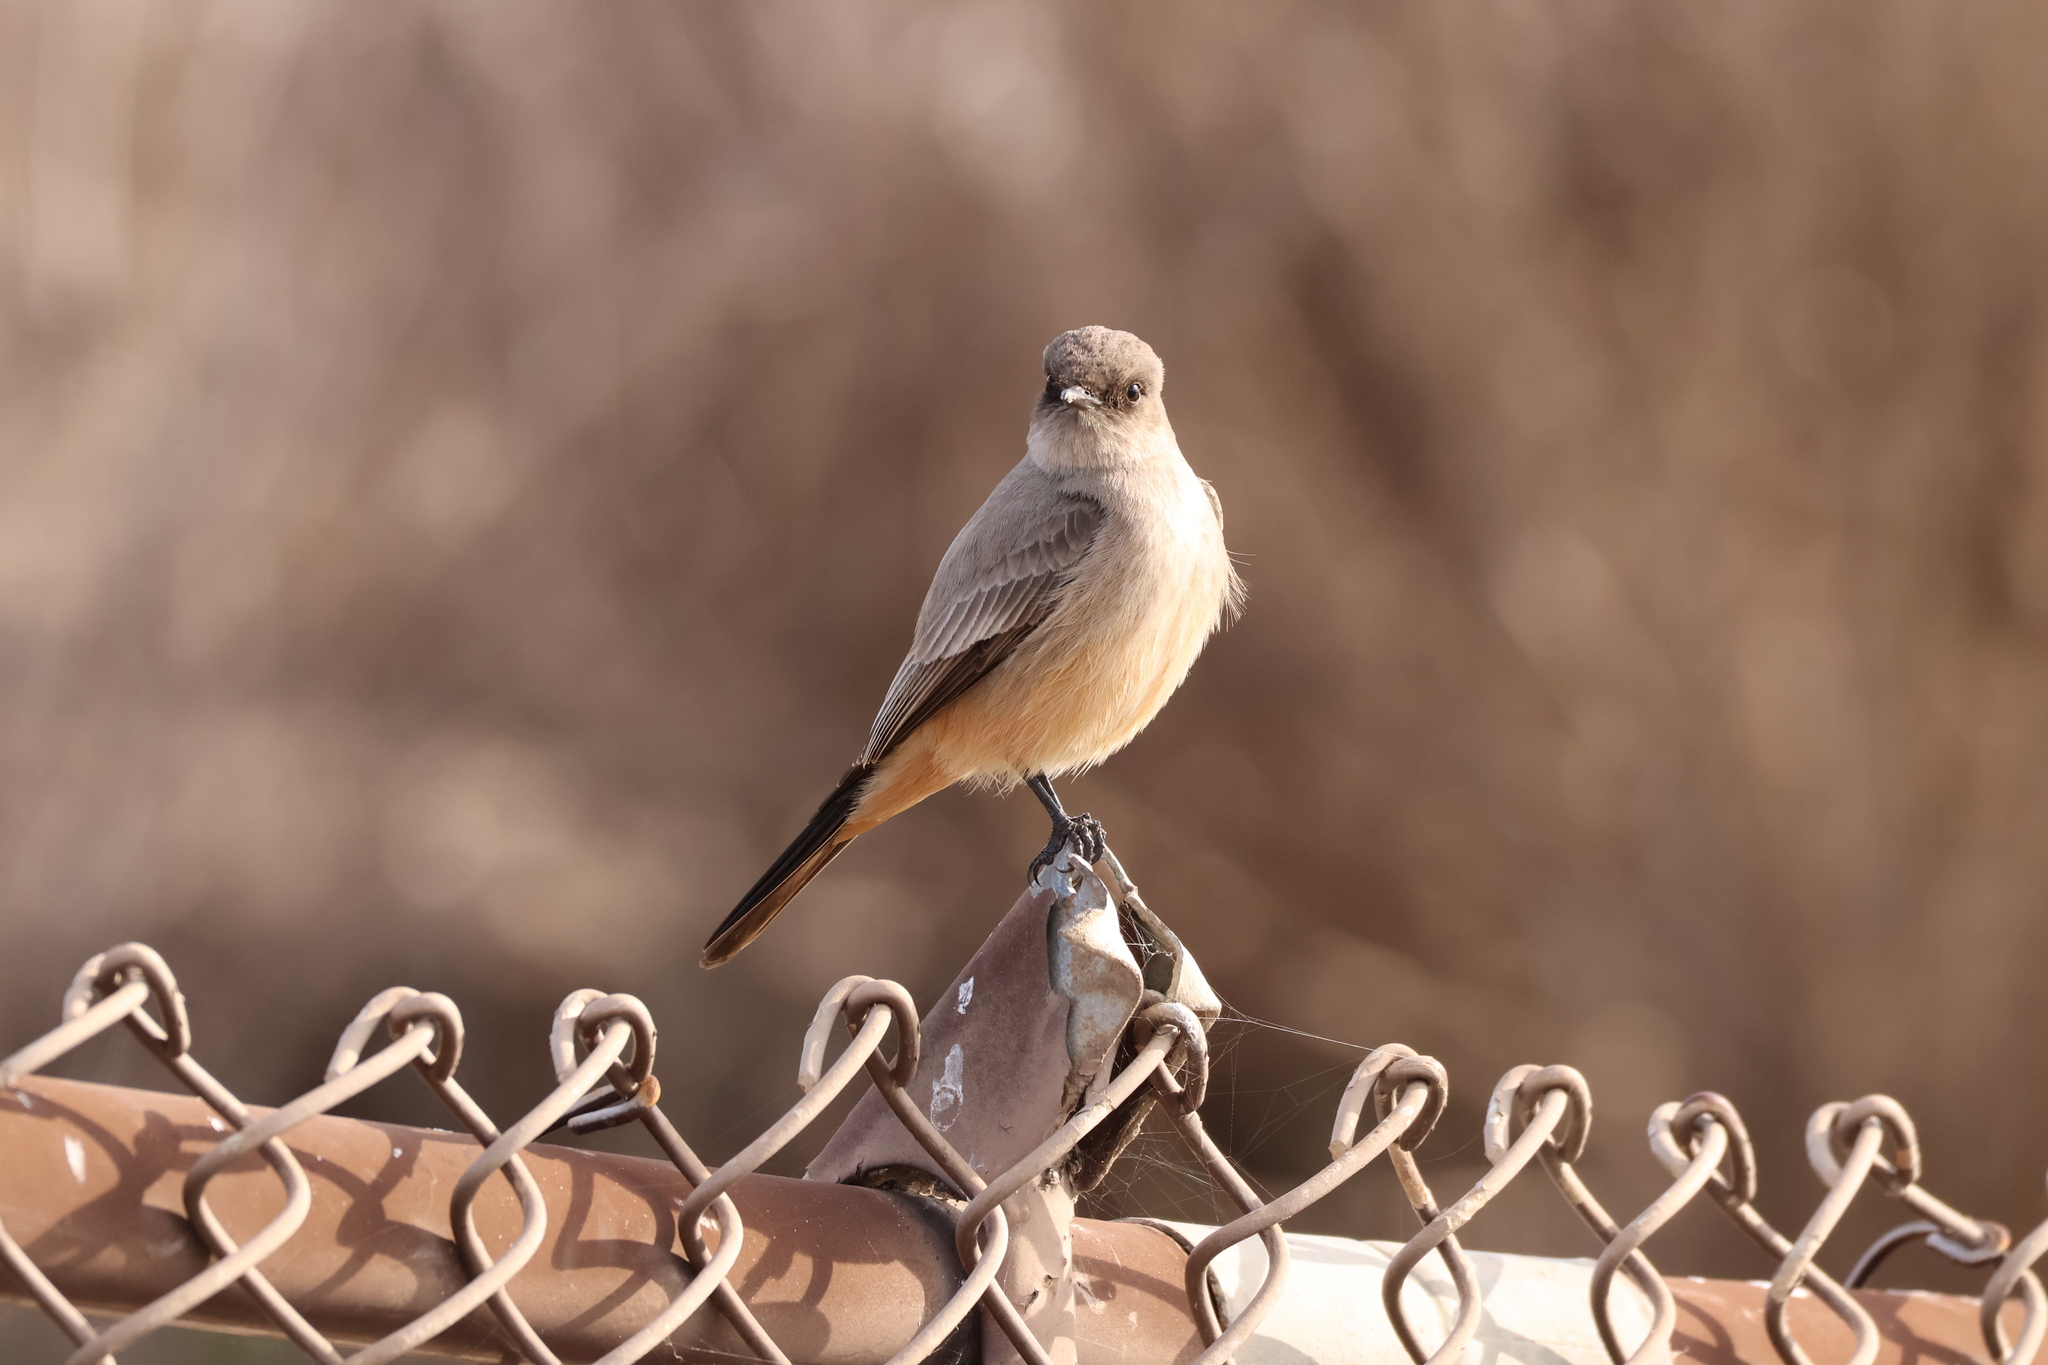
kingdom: Animalia
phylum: Chordata
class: Aves
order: Passeriformes
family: Tyrannidae
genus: Sayornis
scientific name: Sayornis saya
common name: Say's phoebe
